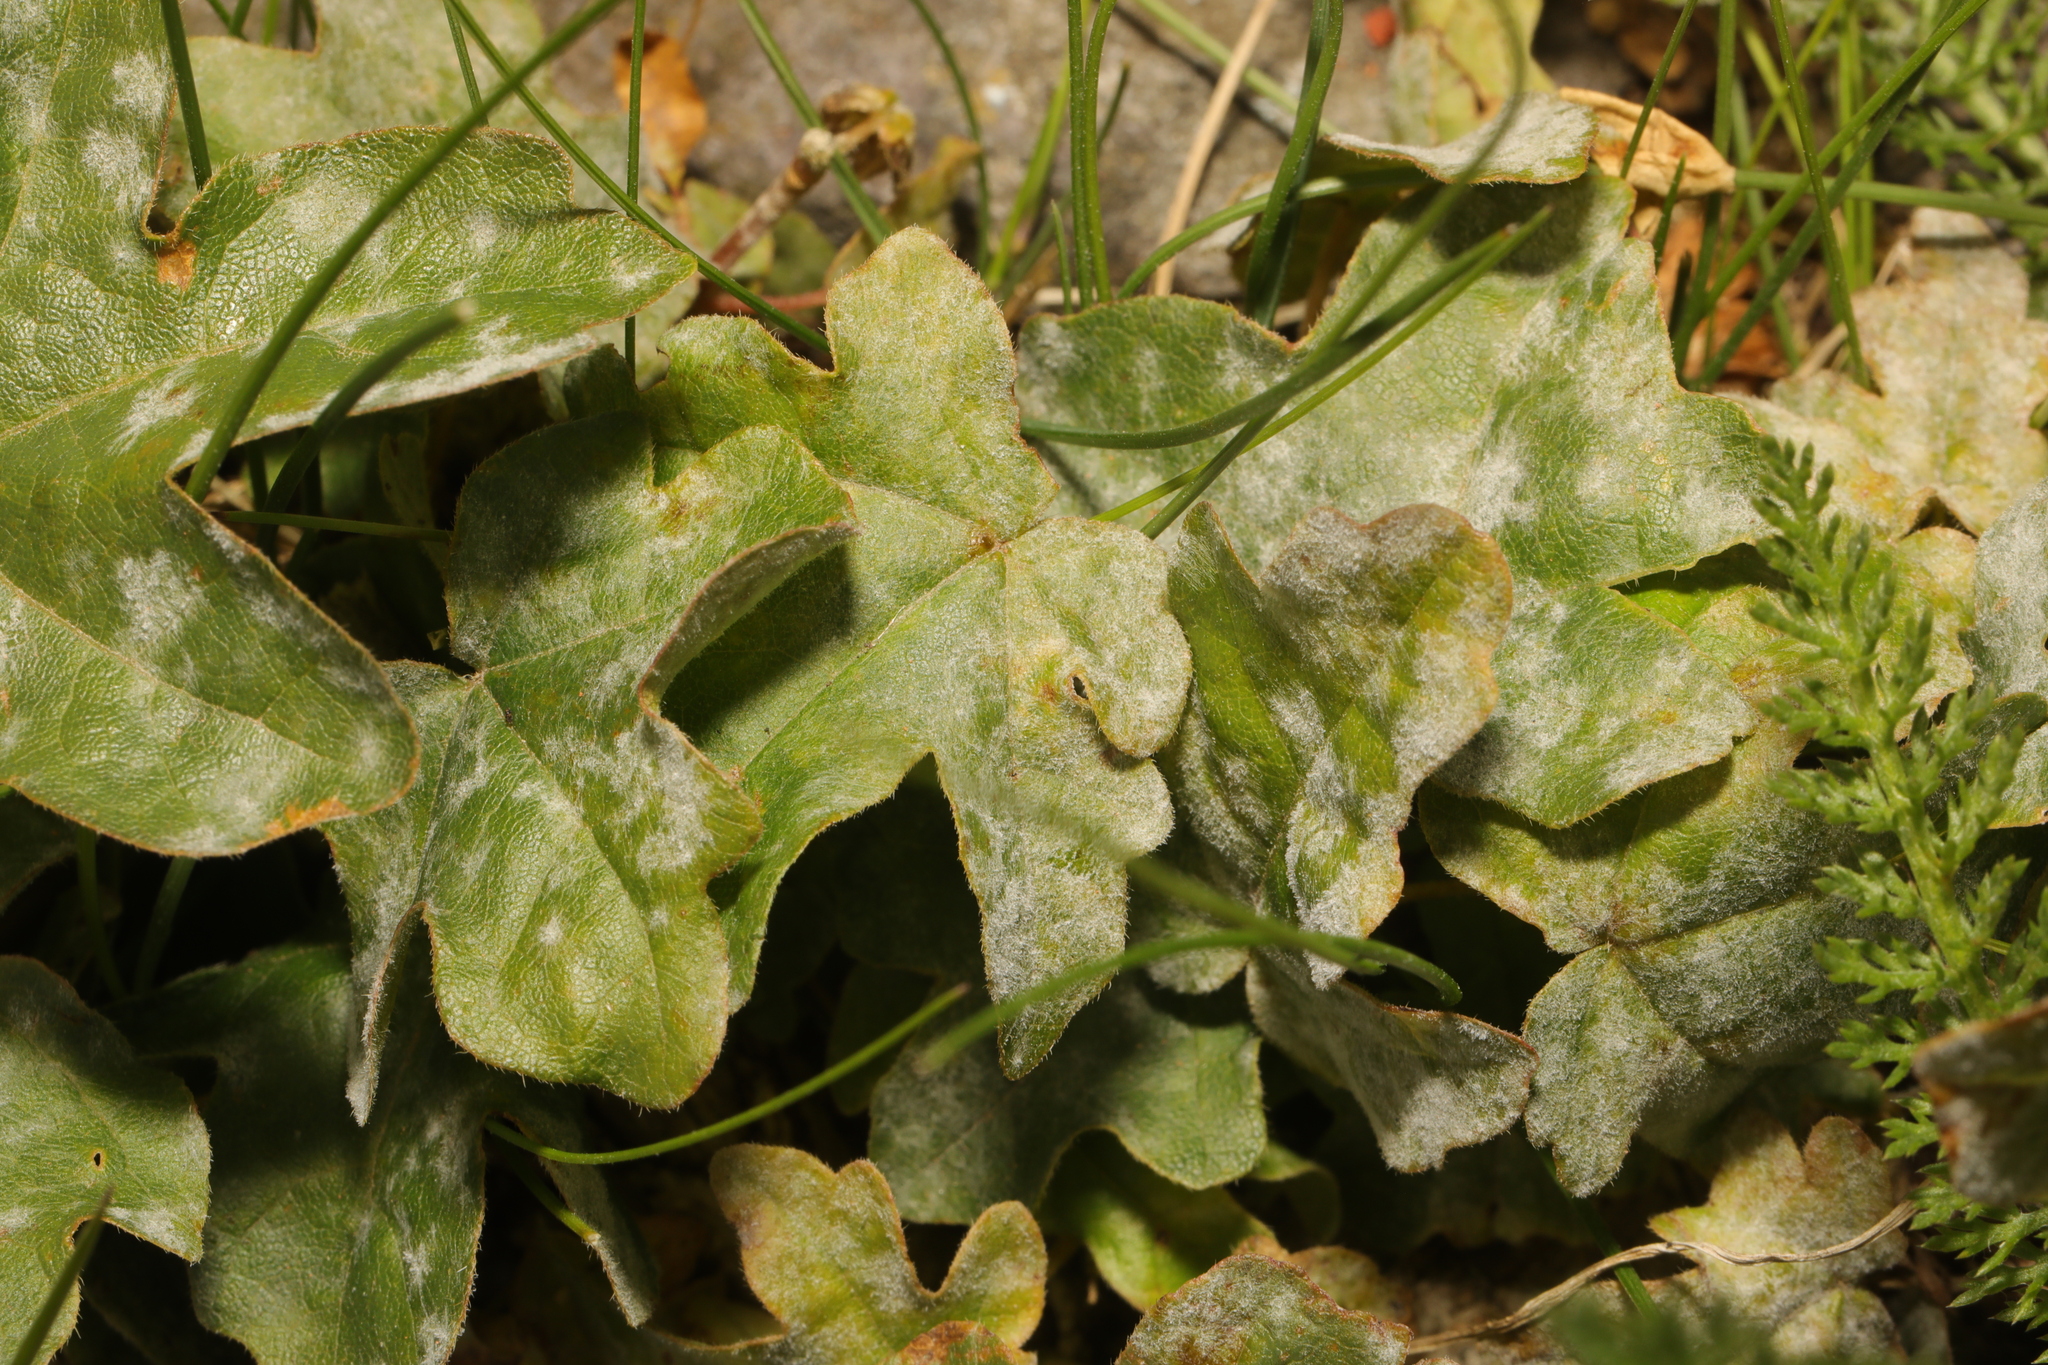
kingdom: Fungi
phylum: Ascomycota
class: Leotiomycetes
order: Helotiales
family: Erysiphaceae
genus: Sawadaea
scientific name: Sawadaea bicornis
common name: Maple mildew
